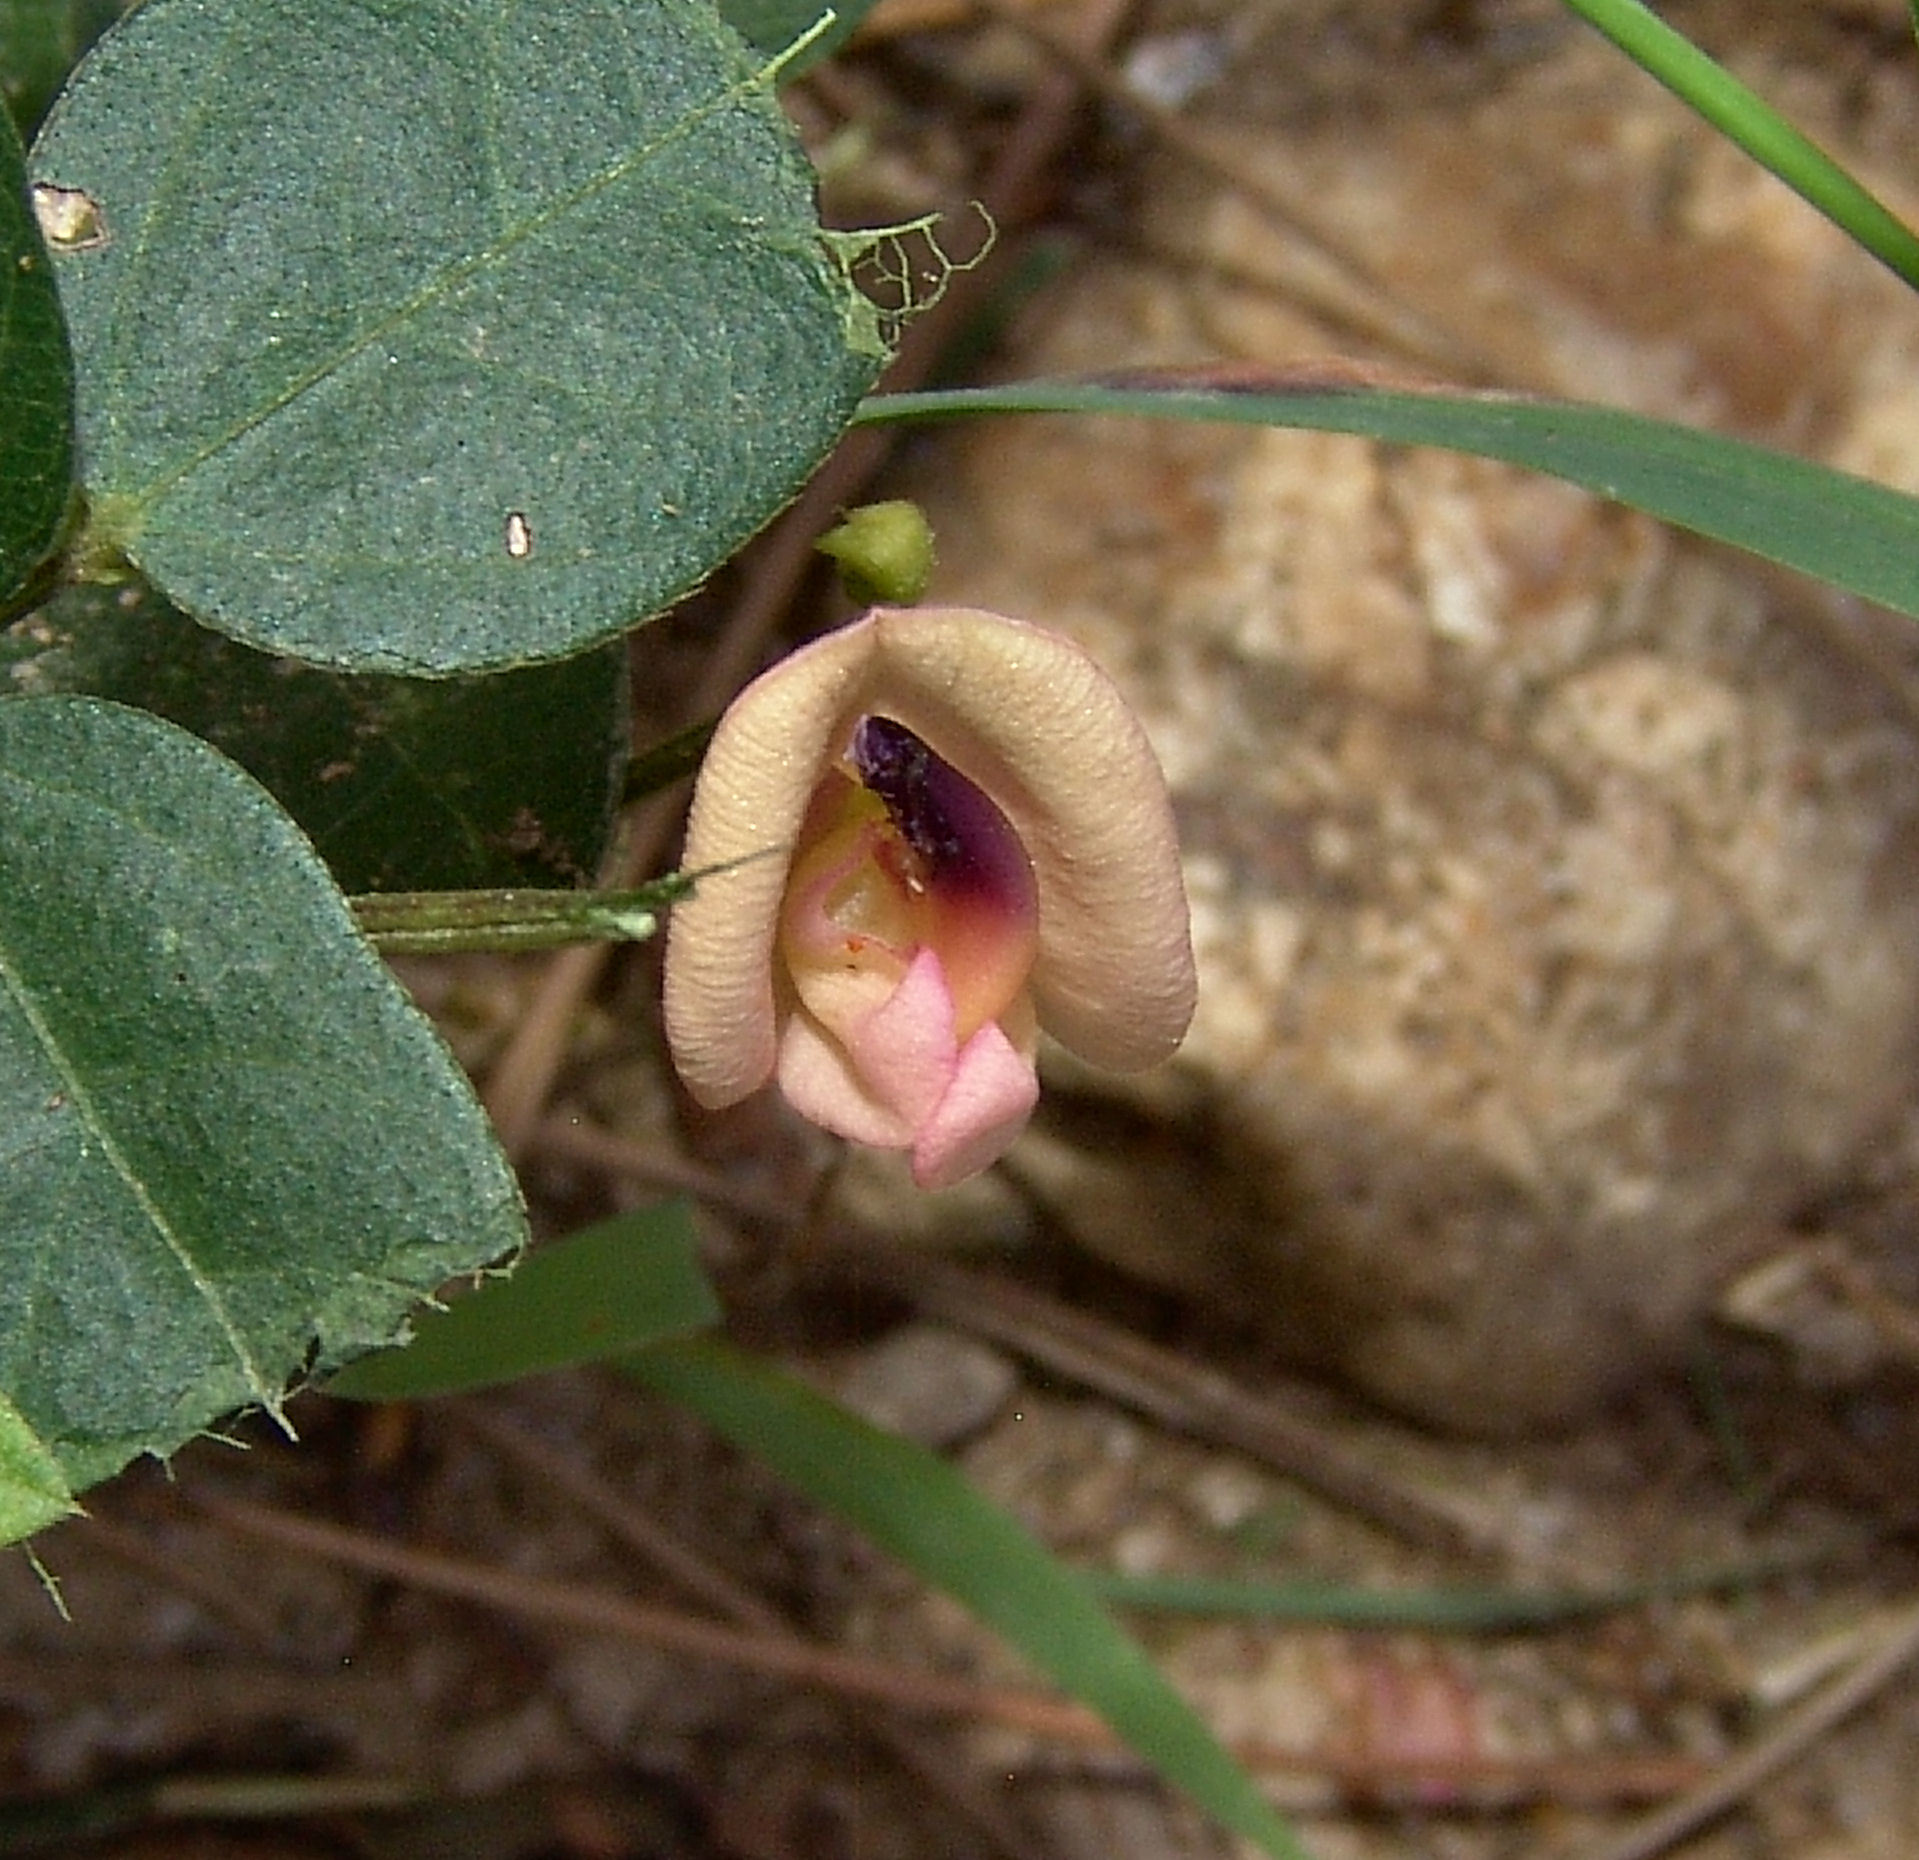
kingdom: Plantae
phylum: Tracheophyta
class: Magnoliopsida
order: Fabales
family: Fabaceae
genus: Strophostyles
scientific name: Strophostyles umbellata
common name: Perennial wild bean
